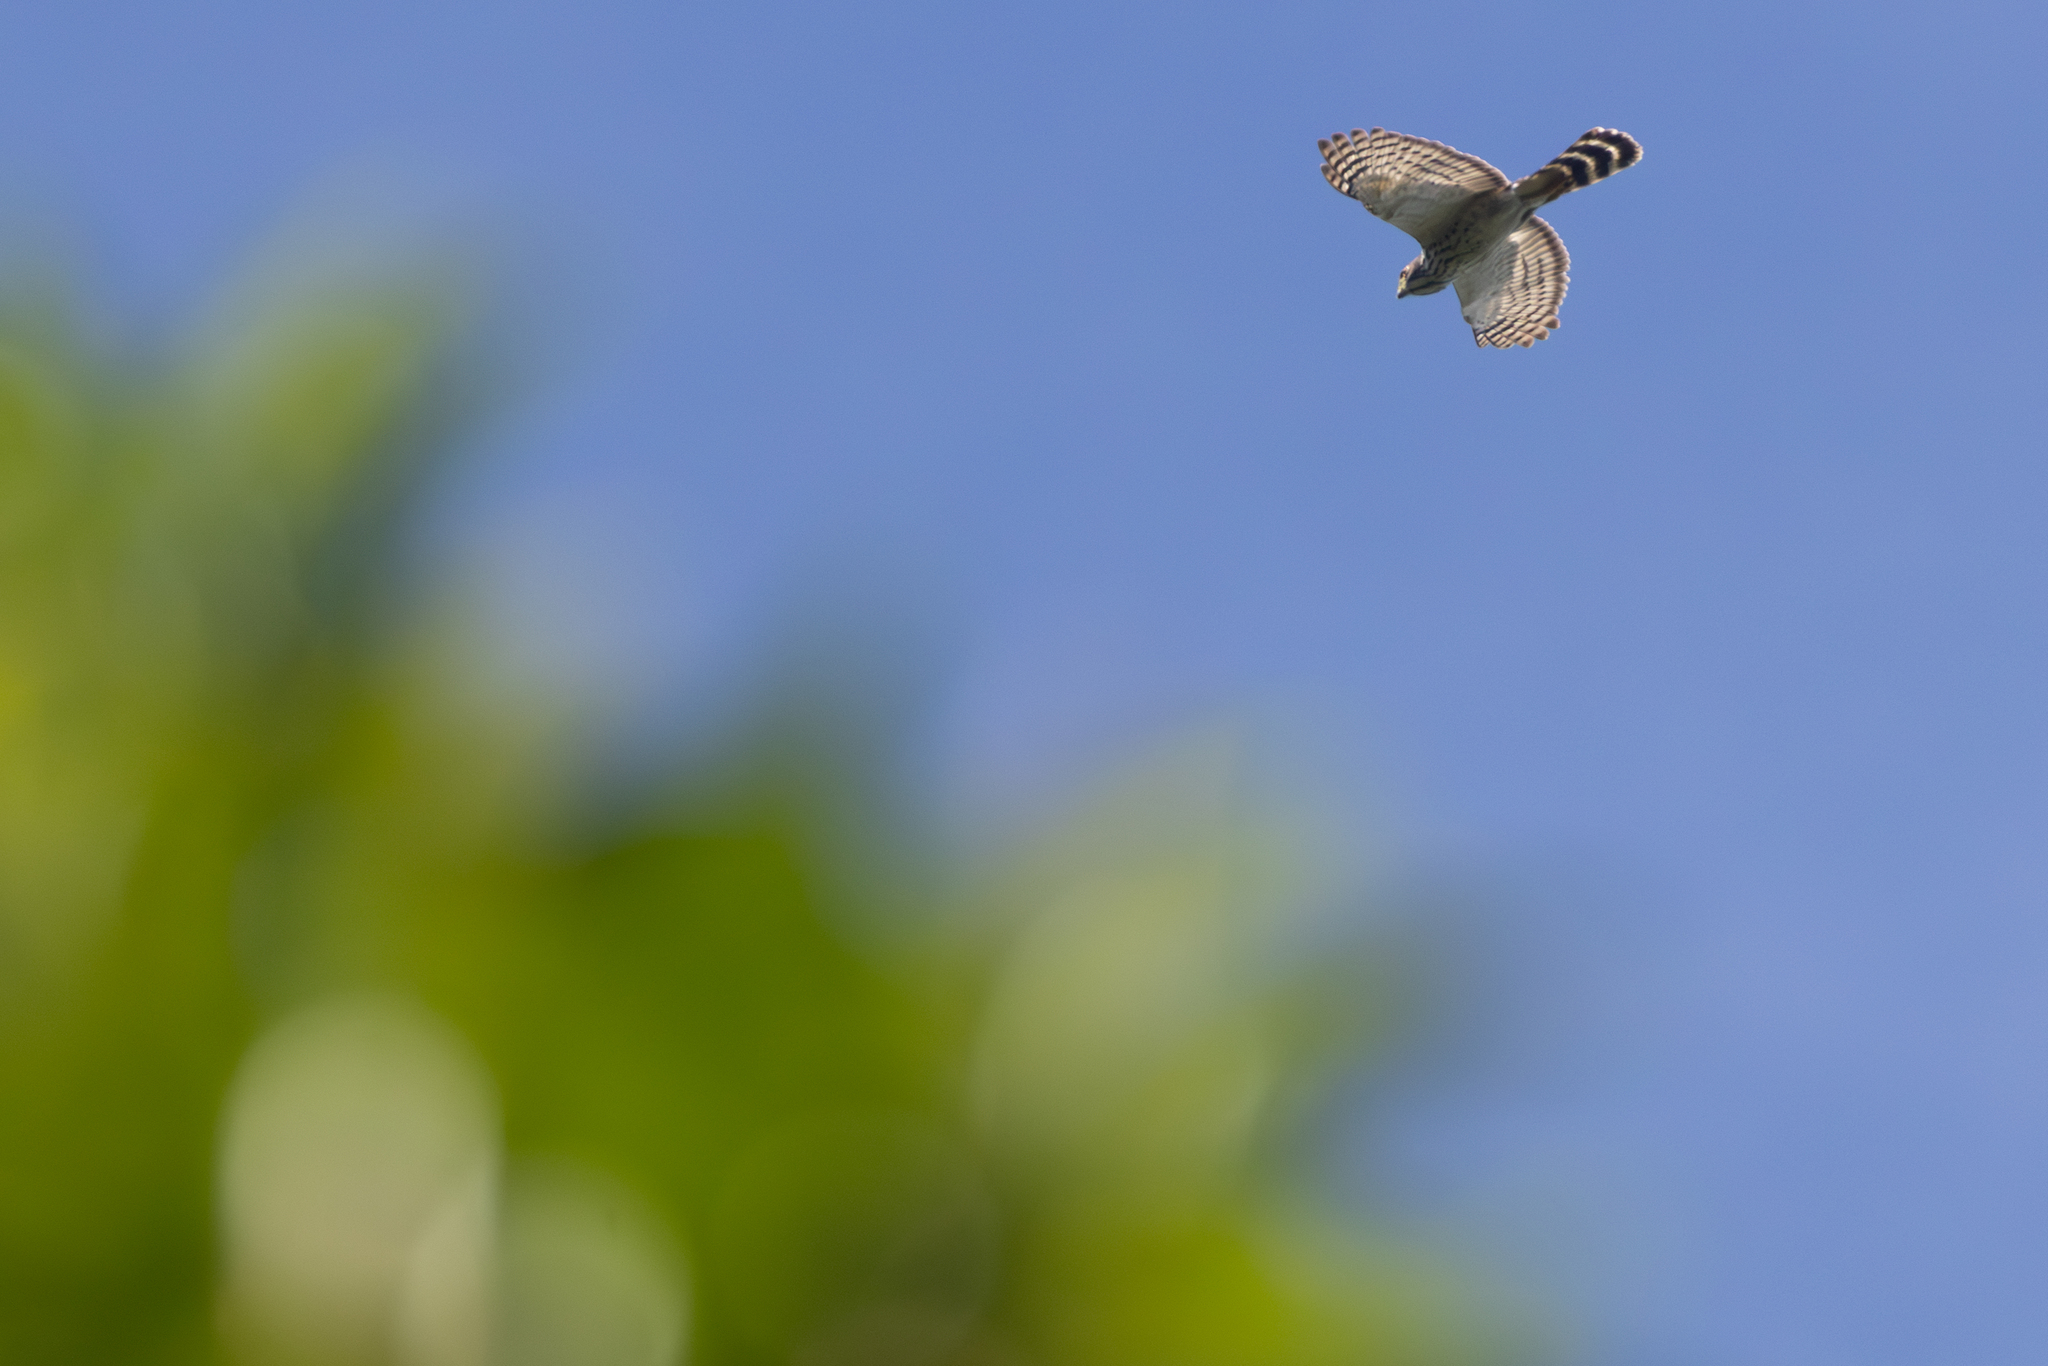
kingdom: Animalia
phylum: Chordata
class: Aves
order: Accipitriformes
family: Accipitridae
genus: Harpagus
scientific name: Harpagus bidentatus
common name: Double-toothed kite
